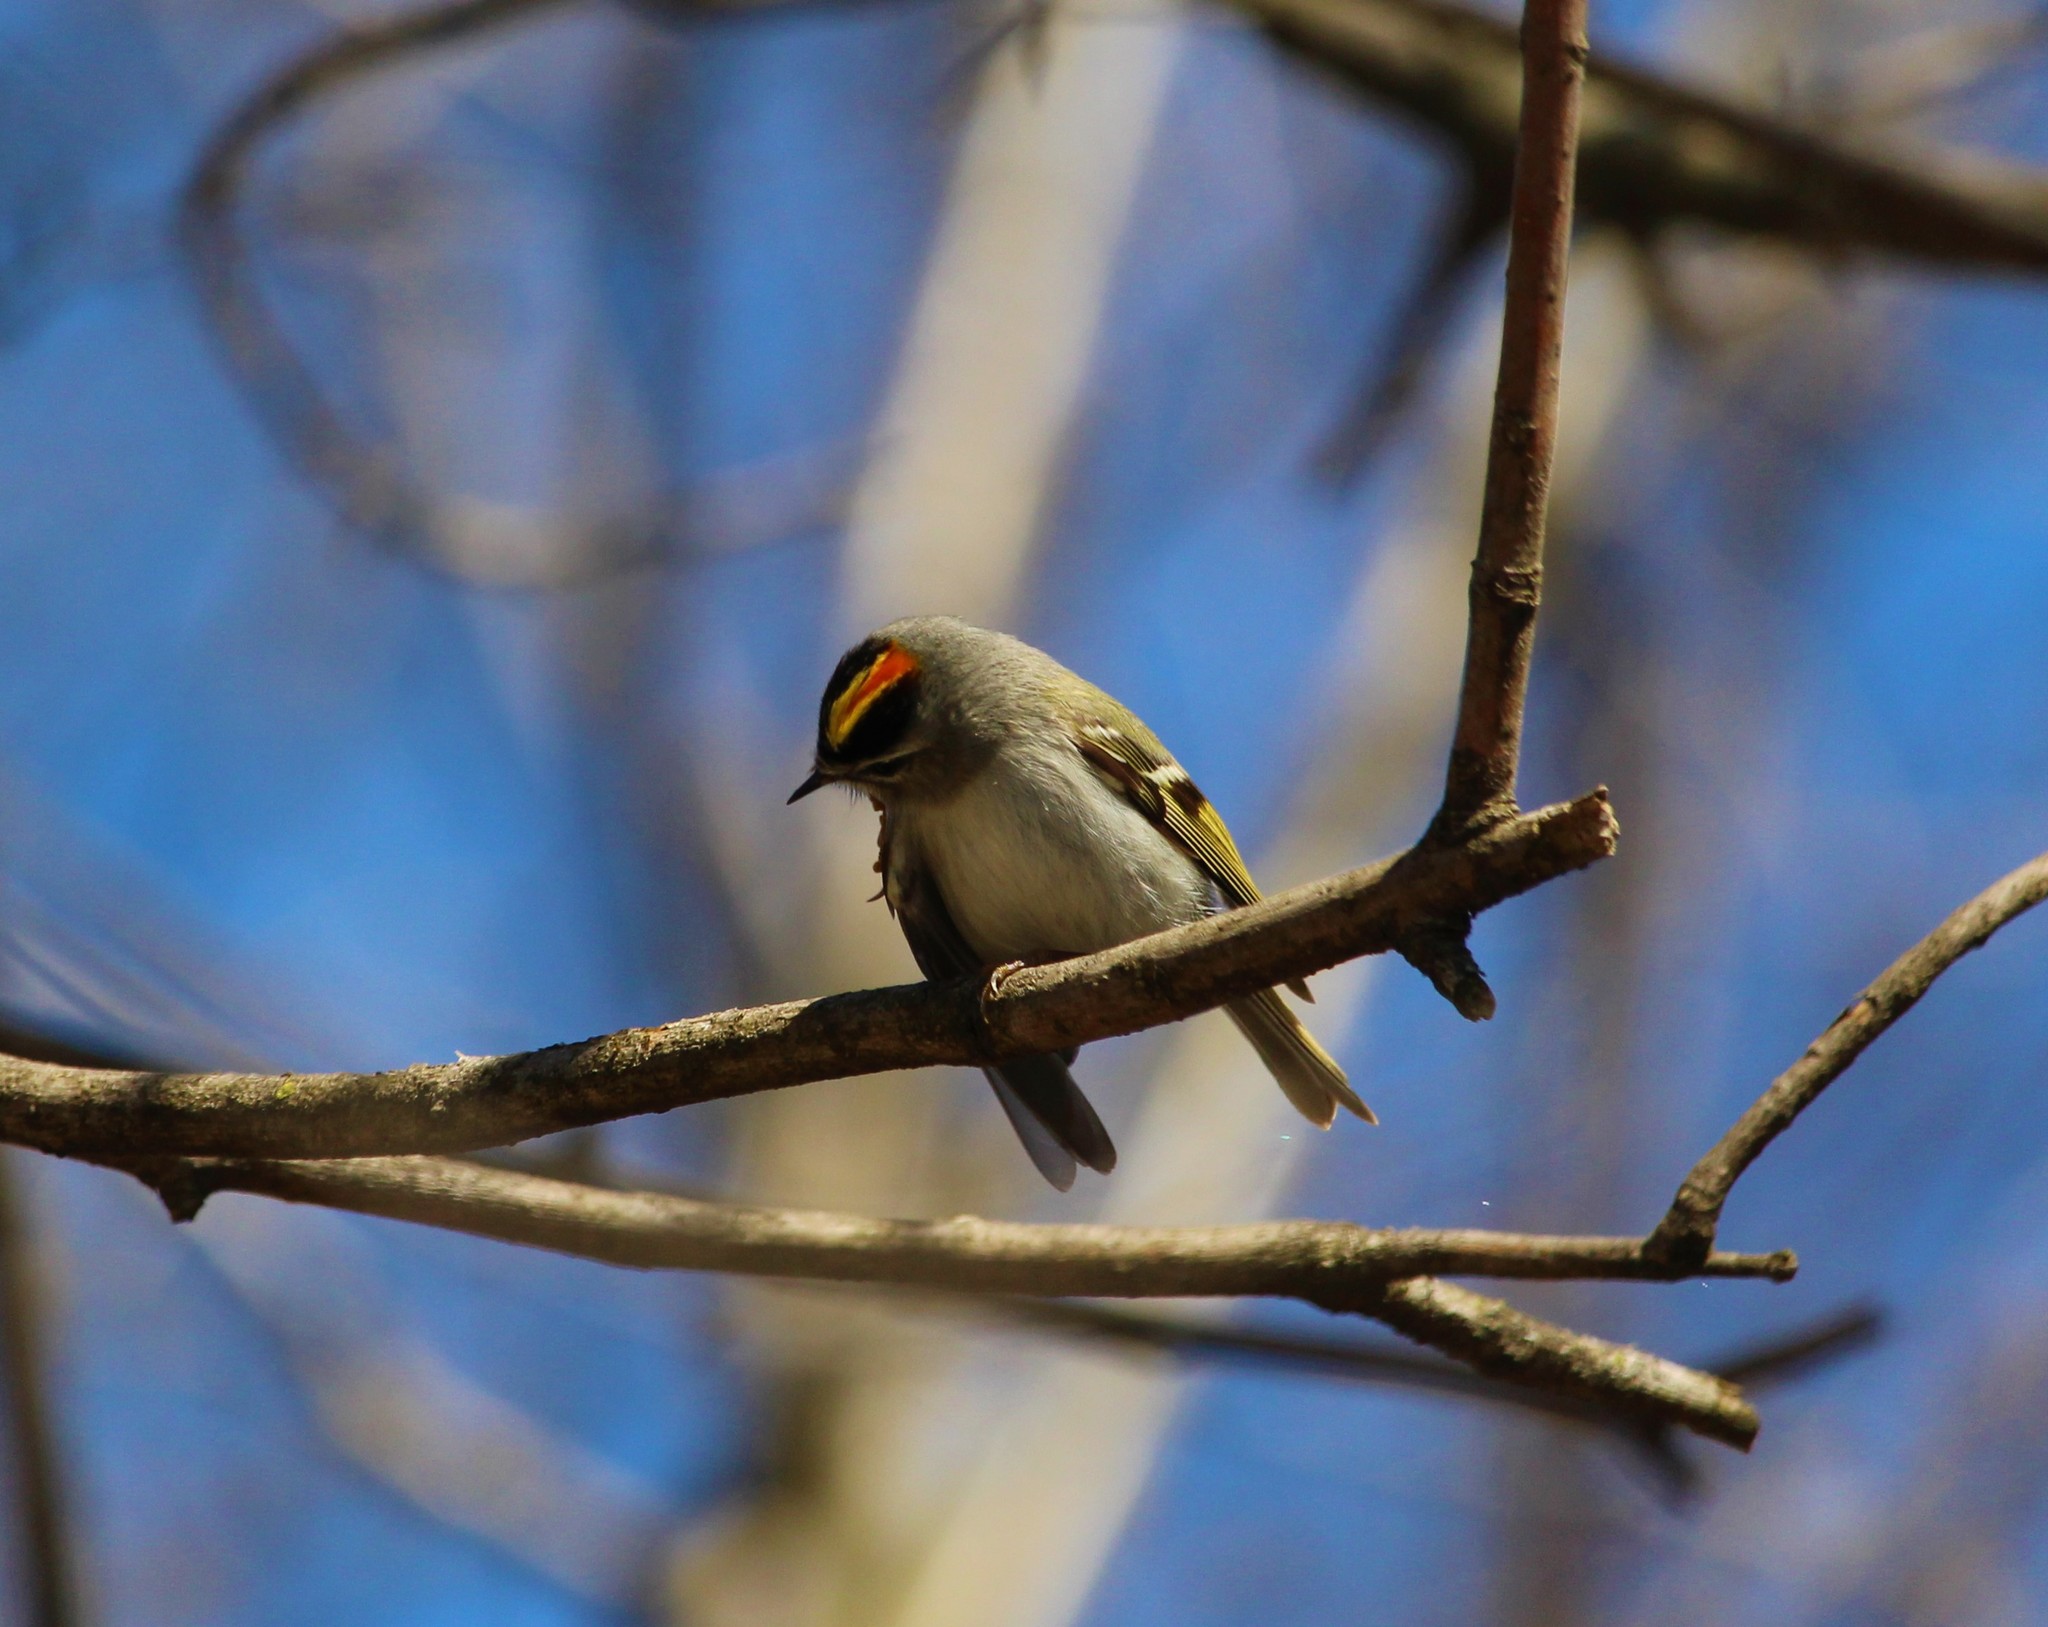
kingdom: Animalia
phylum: Chordata
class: Aves
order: Passeriformes
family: Regulidae
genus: Regulus
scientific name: Regulus satrapa
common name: Golden-crowned kinglet
